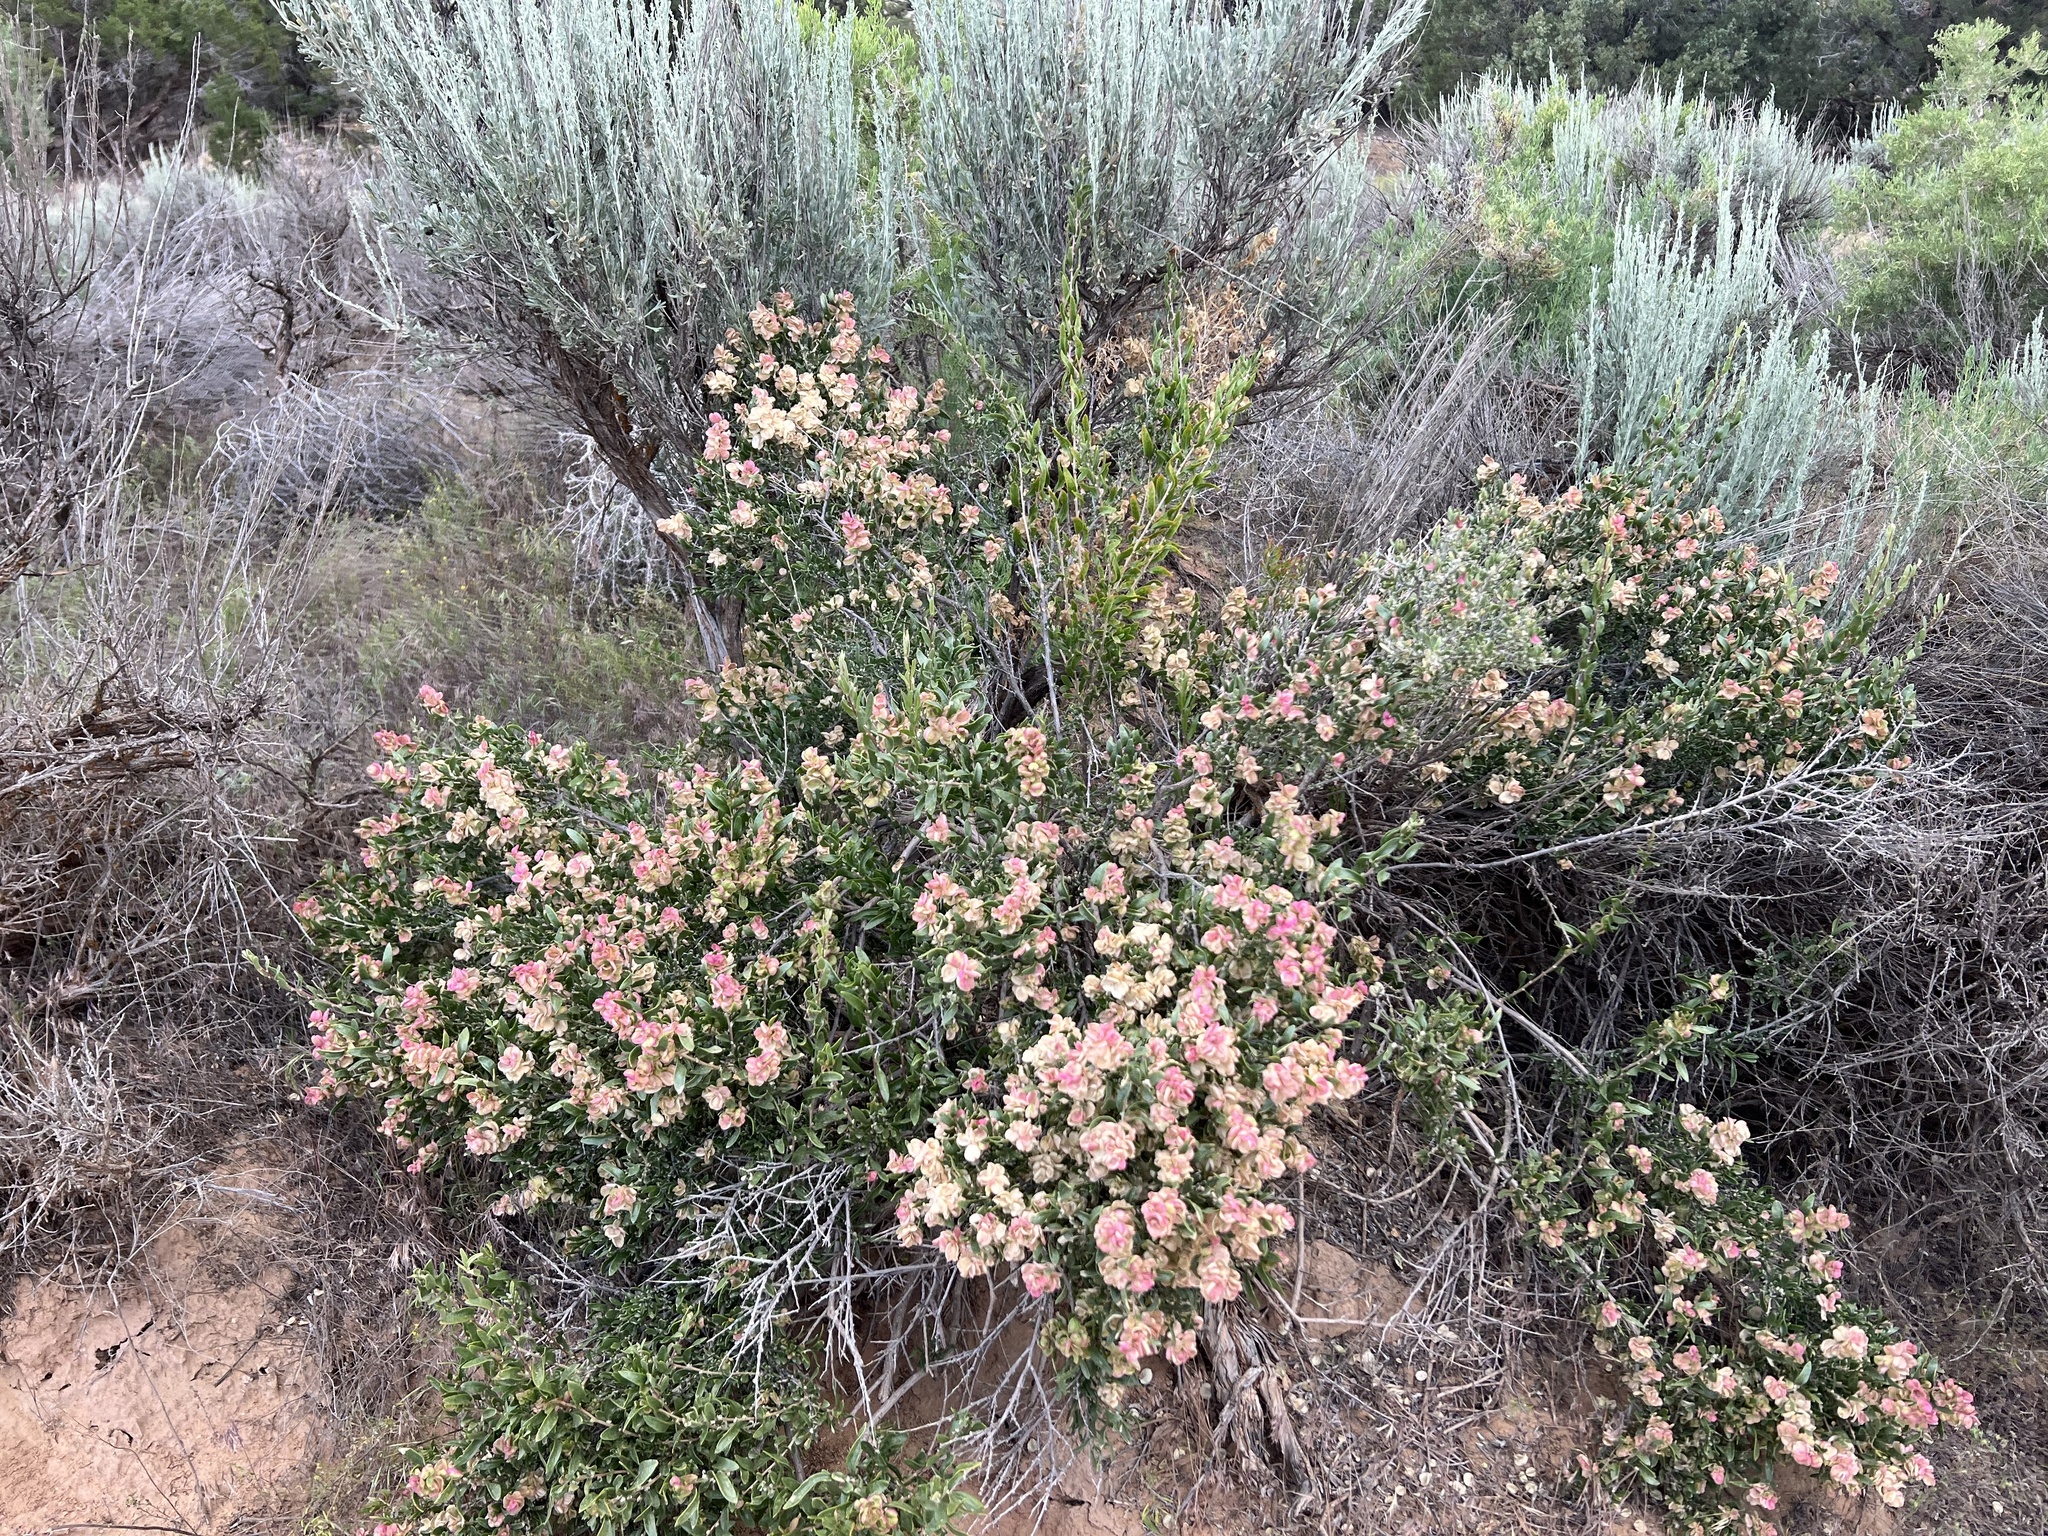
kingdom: Plantae
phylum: Tracheophyta
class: Magnoliopsida
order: Caryophyllales
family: Amaranthaceae
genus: Grayia
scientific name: Grayia spinosa
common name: Spiny hopsage
